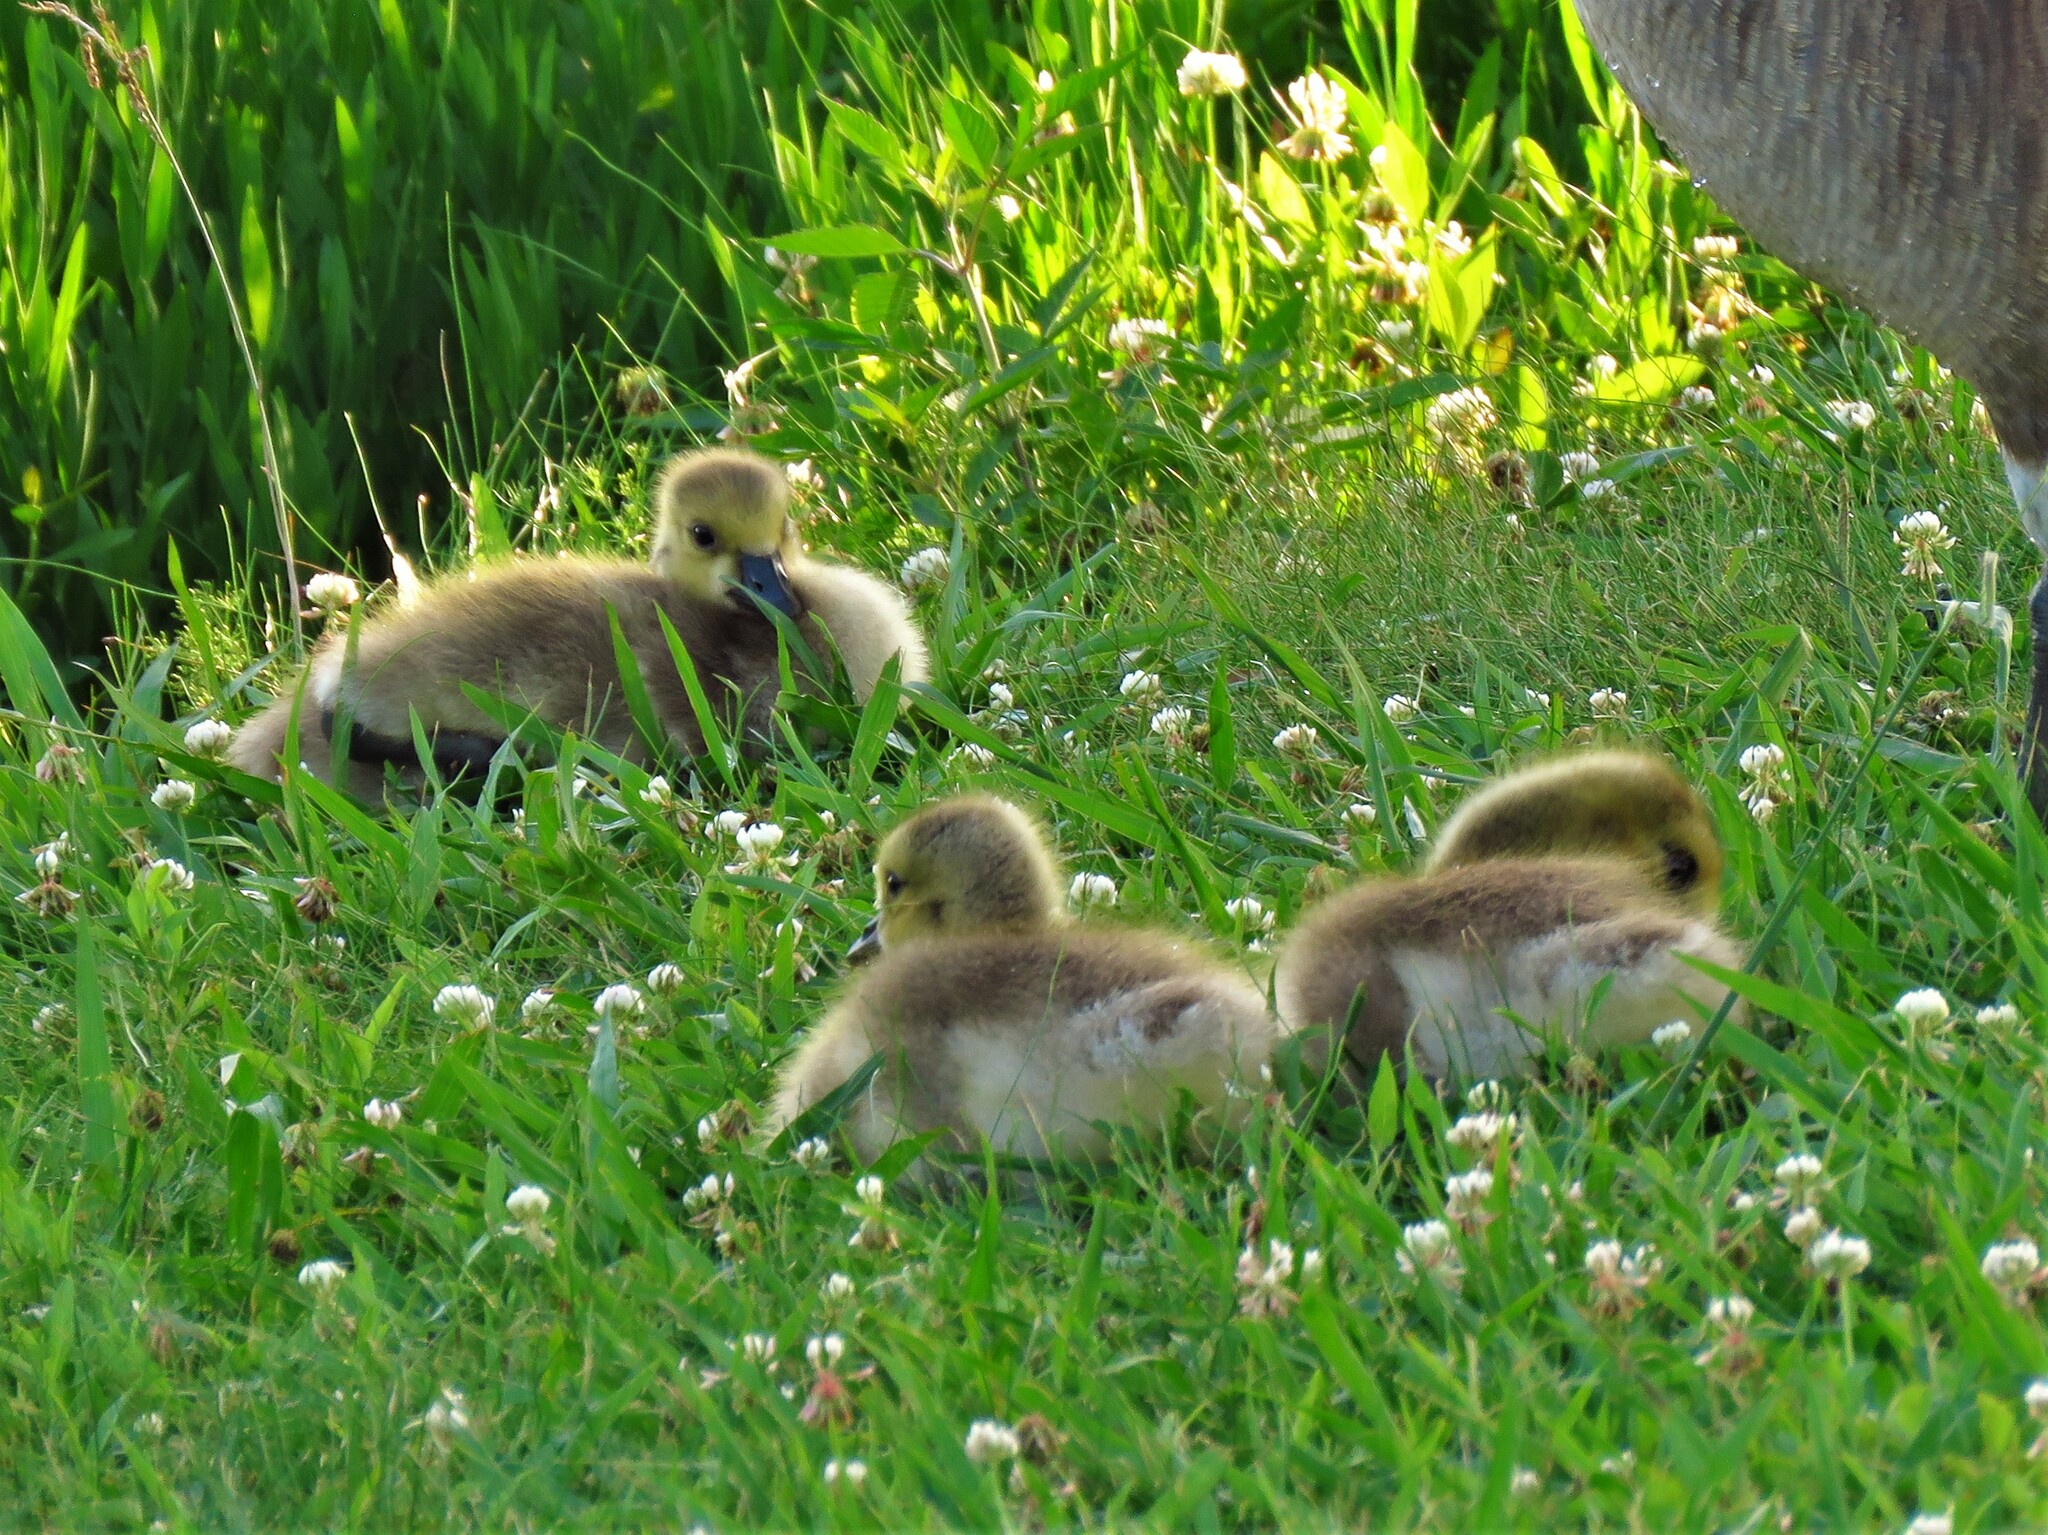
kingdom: Animalia
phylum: Chordata
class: Aves
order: Anseriformes
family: Anatidae
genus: Branta
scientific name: Branta canadensis
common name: Canada goose
